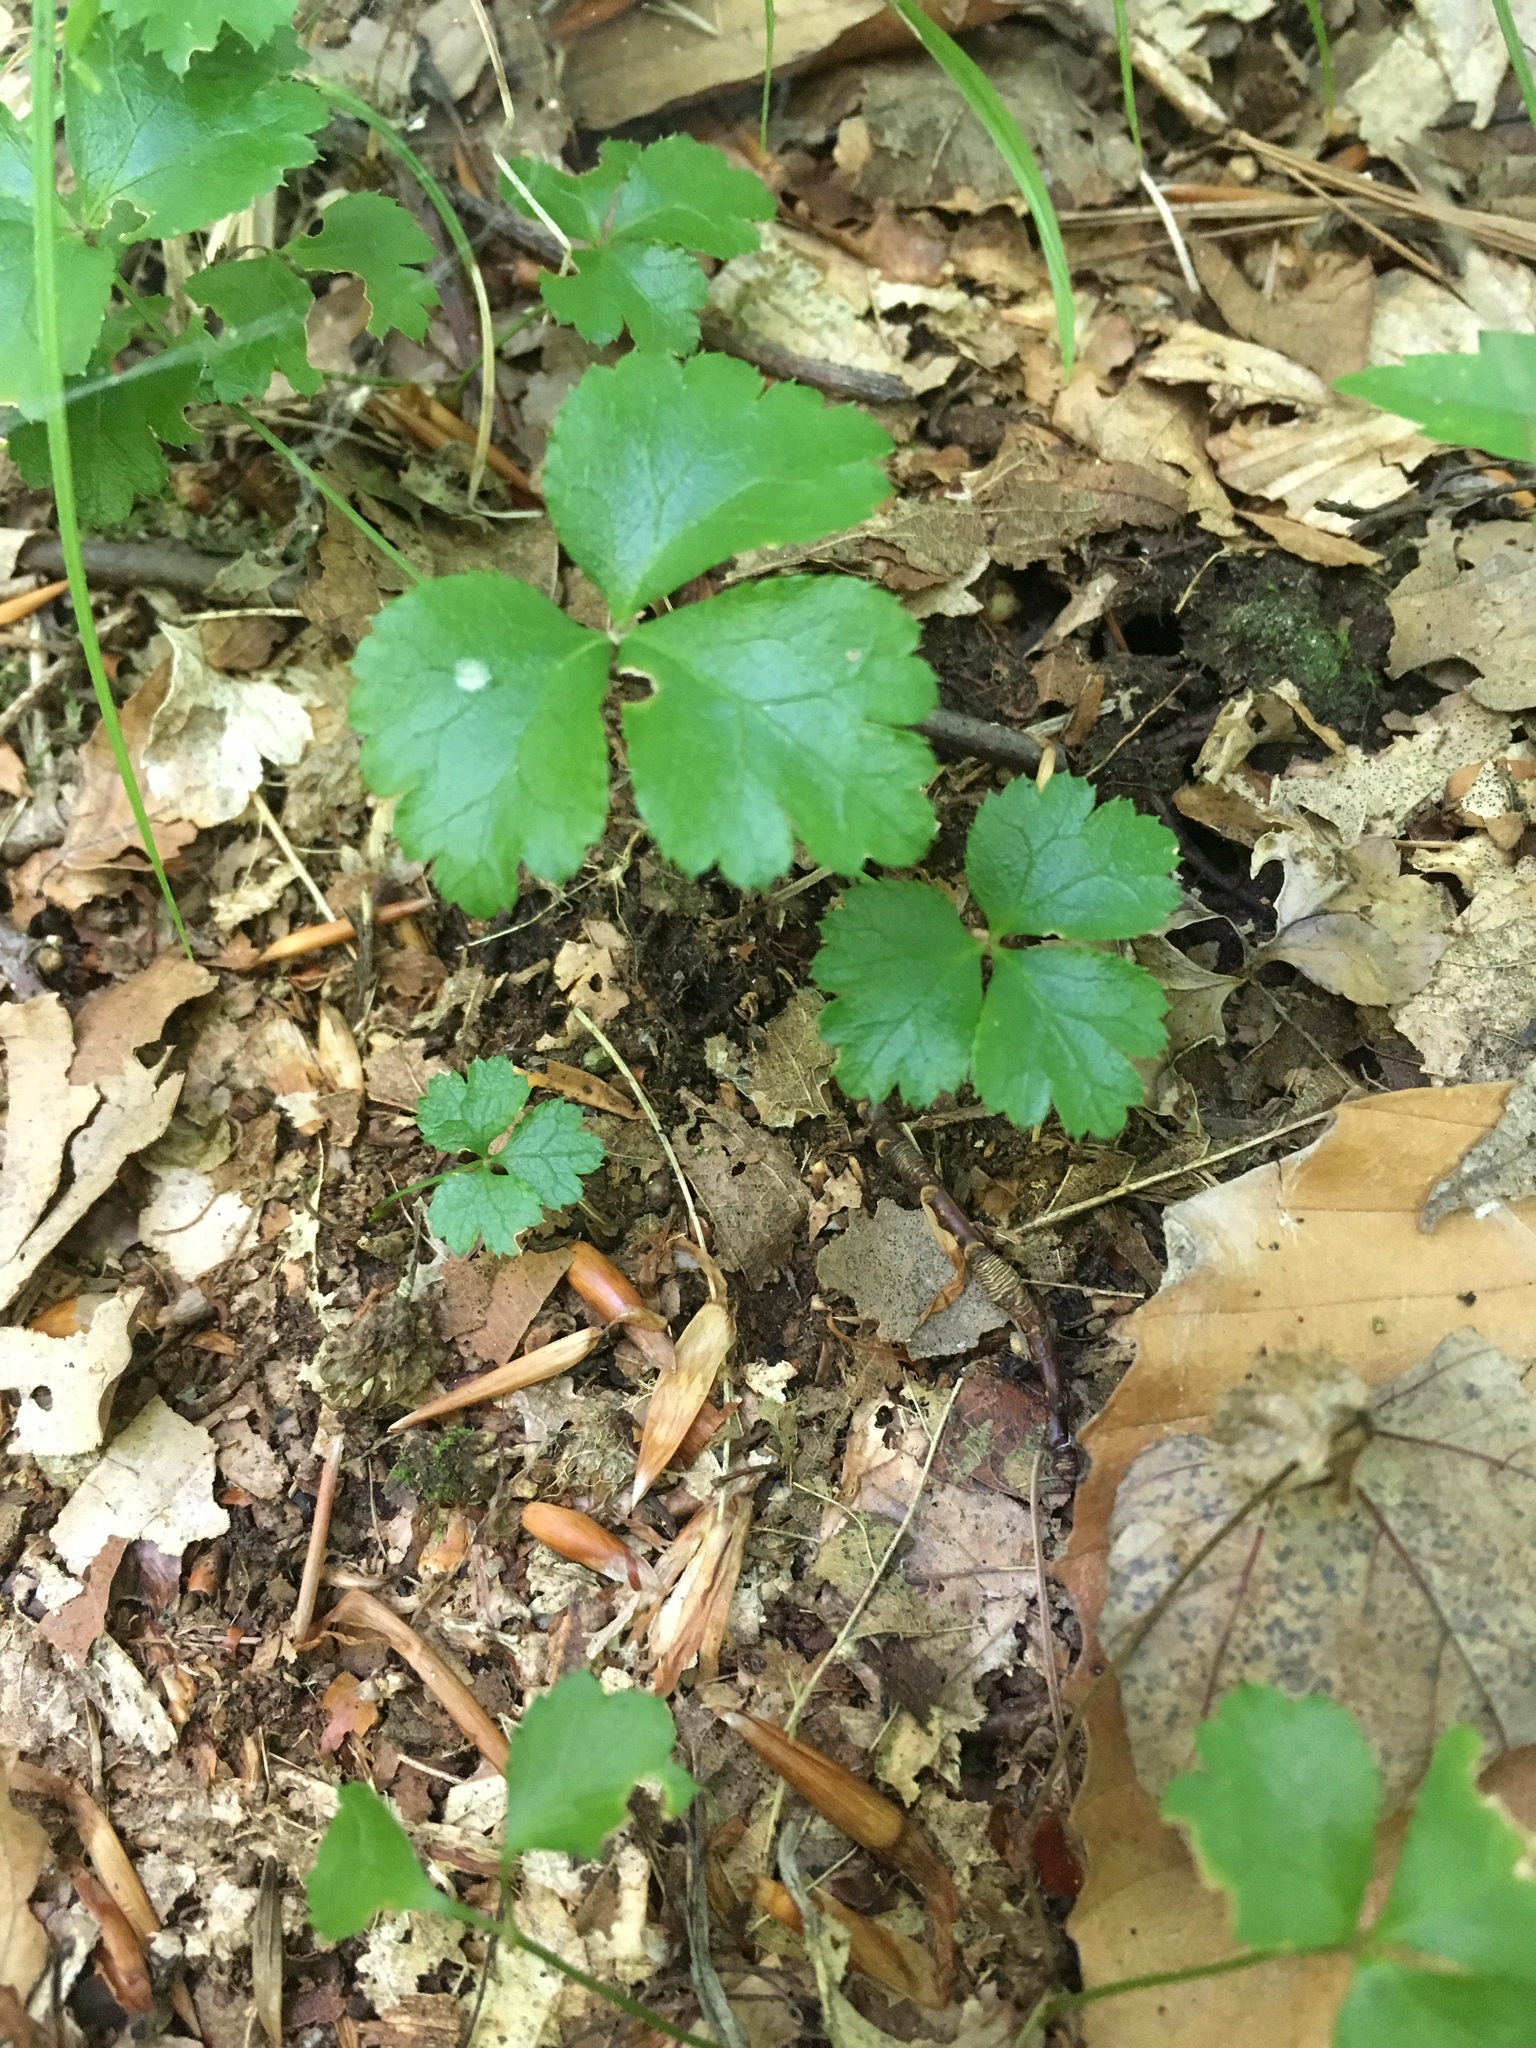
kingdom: Plantae
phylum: Tracheophyta
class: Magnoliopsida
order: Ranunculales
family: Ranunculaceae
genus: Coptis
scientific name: Coptis trifolia
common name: Canker-root
